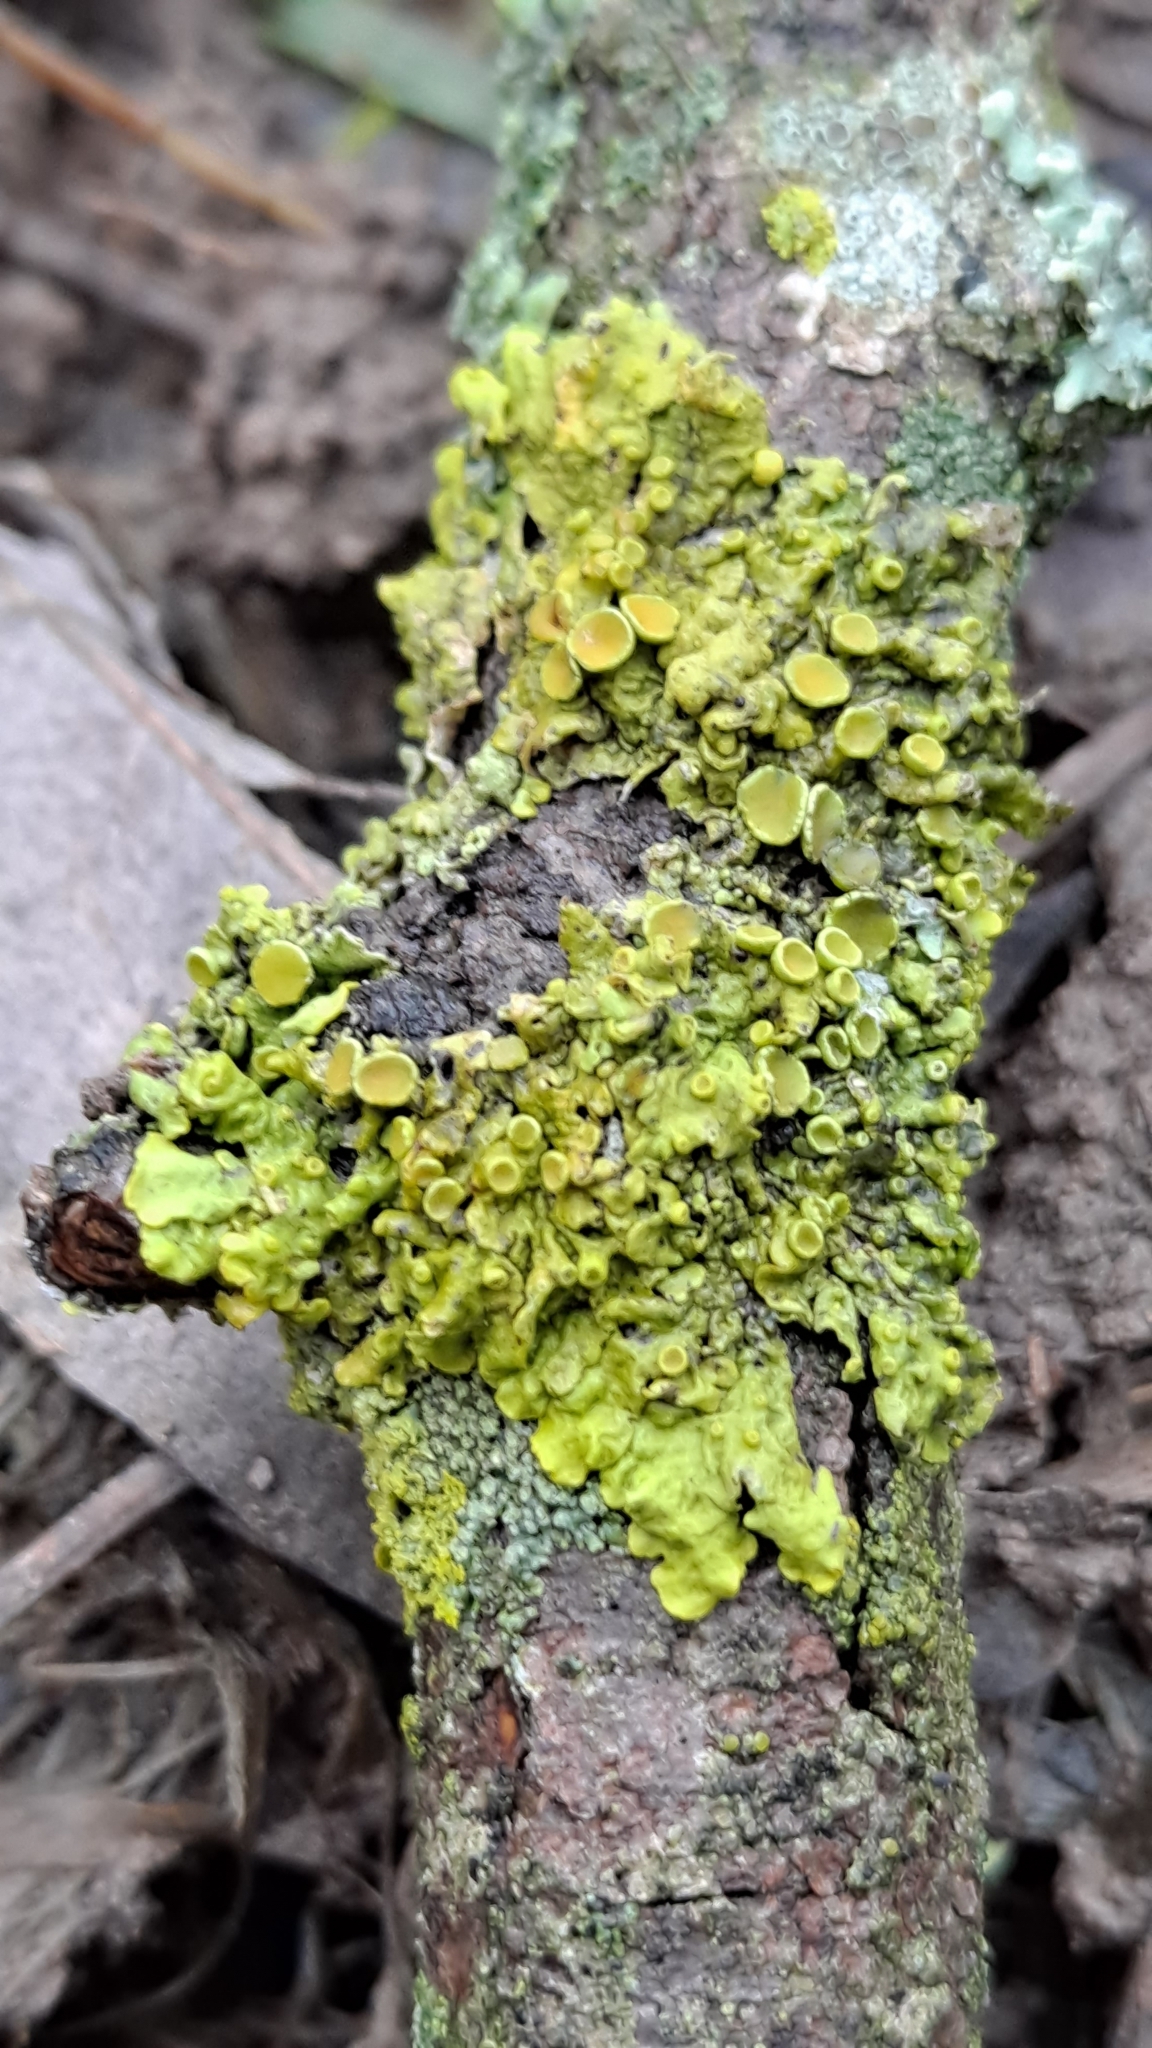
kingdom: Fungi
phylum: Ascomycota
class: Lecanoromycetes
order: Teloschistales
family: Teloschistaceae
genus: Xanthoria
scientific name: Xanthoria parietina
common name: Common orange lichen
